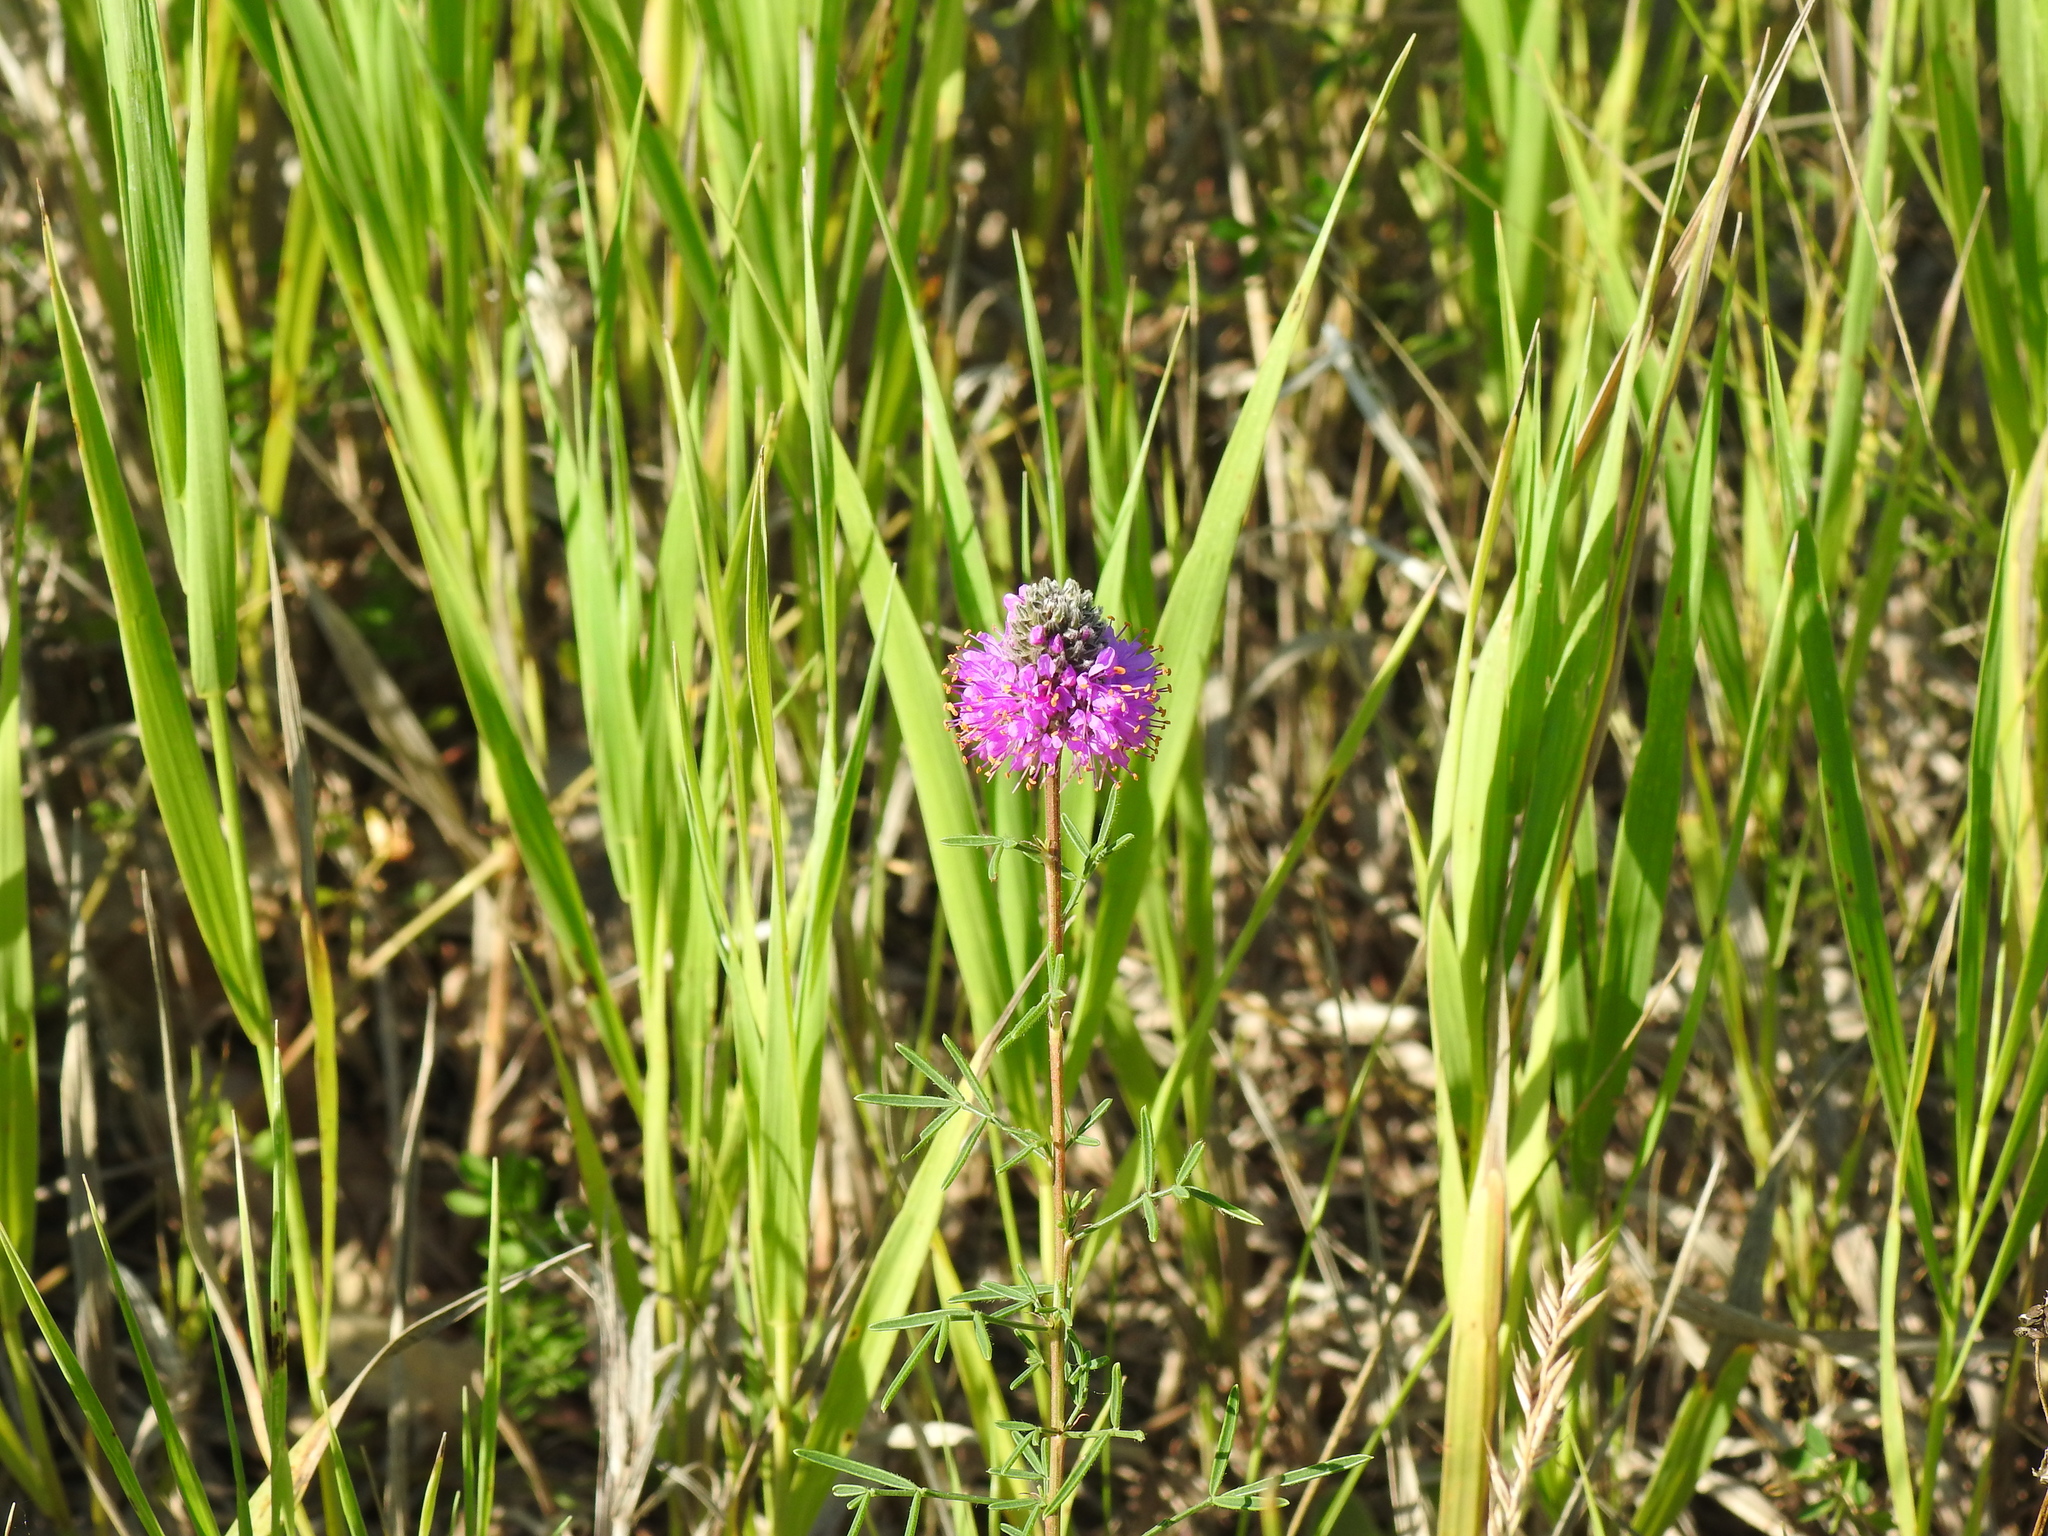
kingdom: Plantae
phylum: Tracheophyta
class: Magnoliopsida
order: Fabales
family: Fabaceae
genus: Dalea
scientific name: Dalea purpurea
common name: Purple prairie-clover
